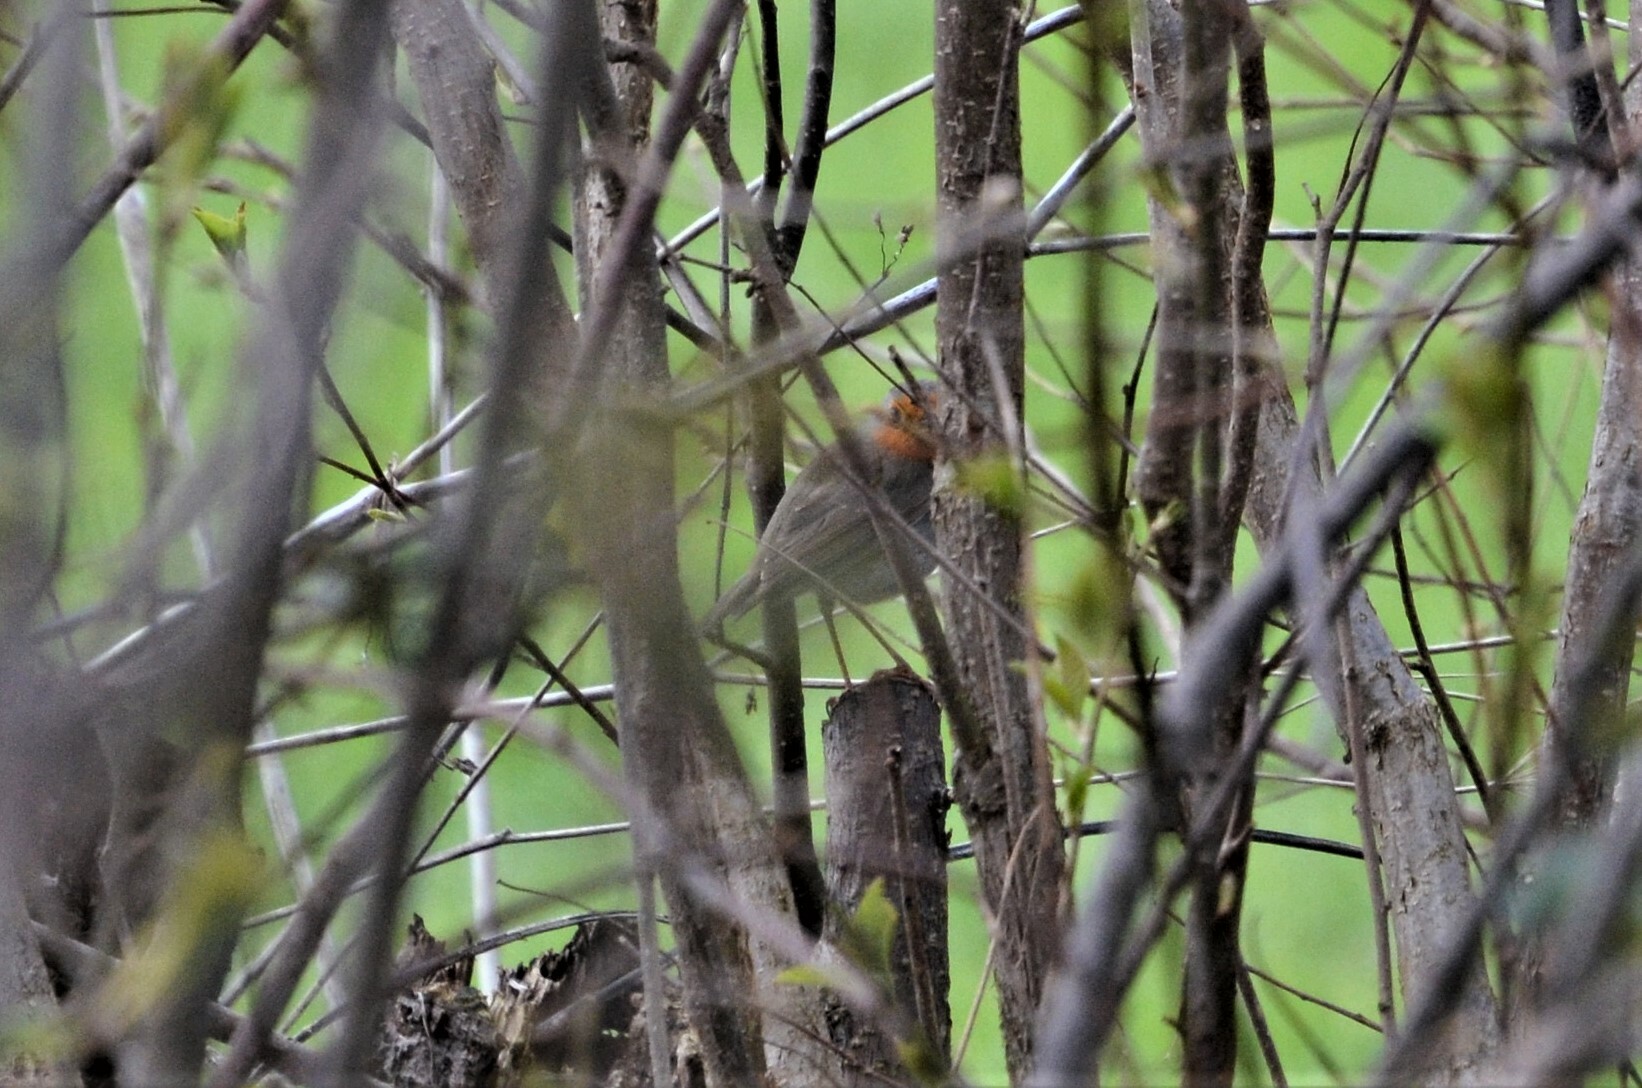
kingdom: Animalia
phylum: Chordata
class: Aves
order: Passeriformes
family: Muscicapidae
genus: Erithacus
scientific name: Erithacus rubecula
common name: European robin
